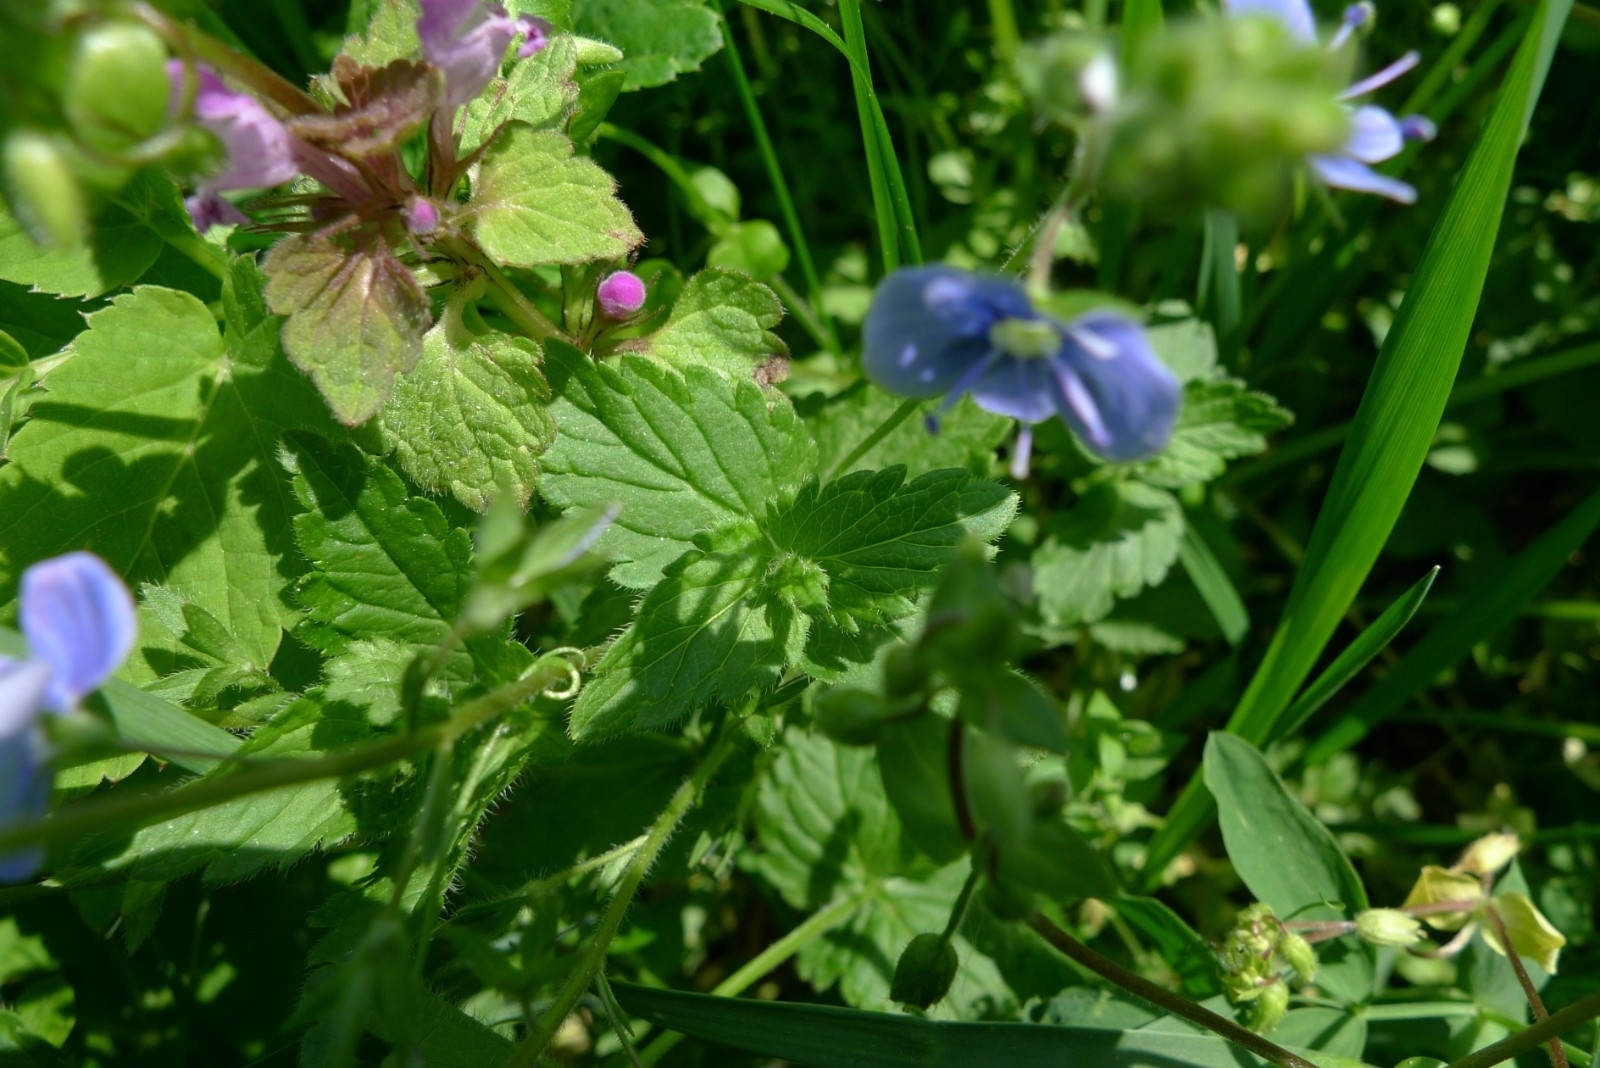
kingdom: Plantae
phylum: Tracheophyta
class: Magnoliopsida
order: Lamiales
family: Plantaginaceae
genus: Veronica
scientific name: Veronica chamaedrys
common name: Germander speedwell
